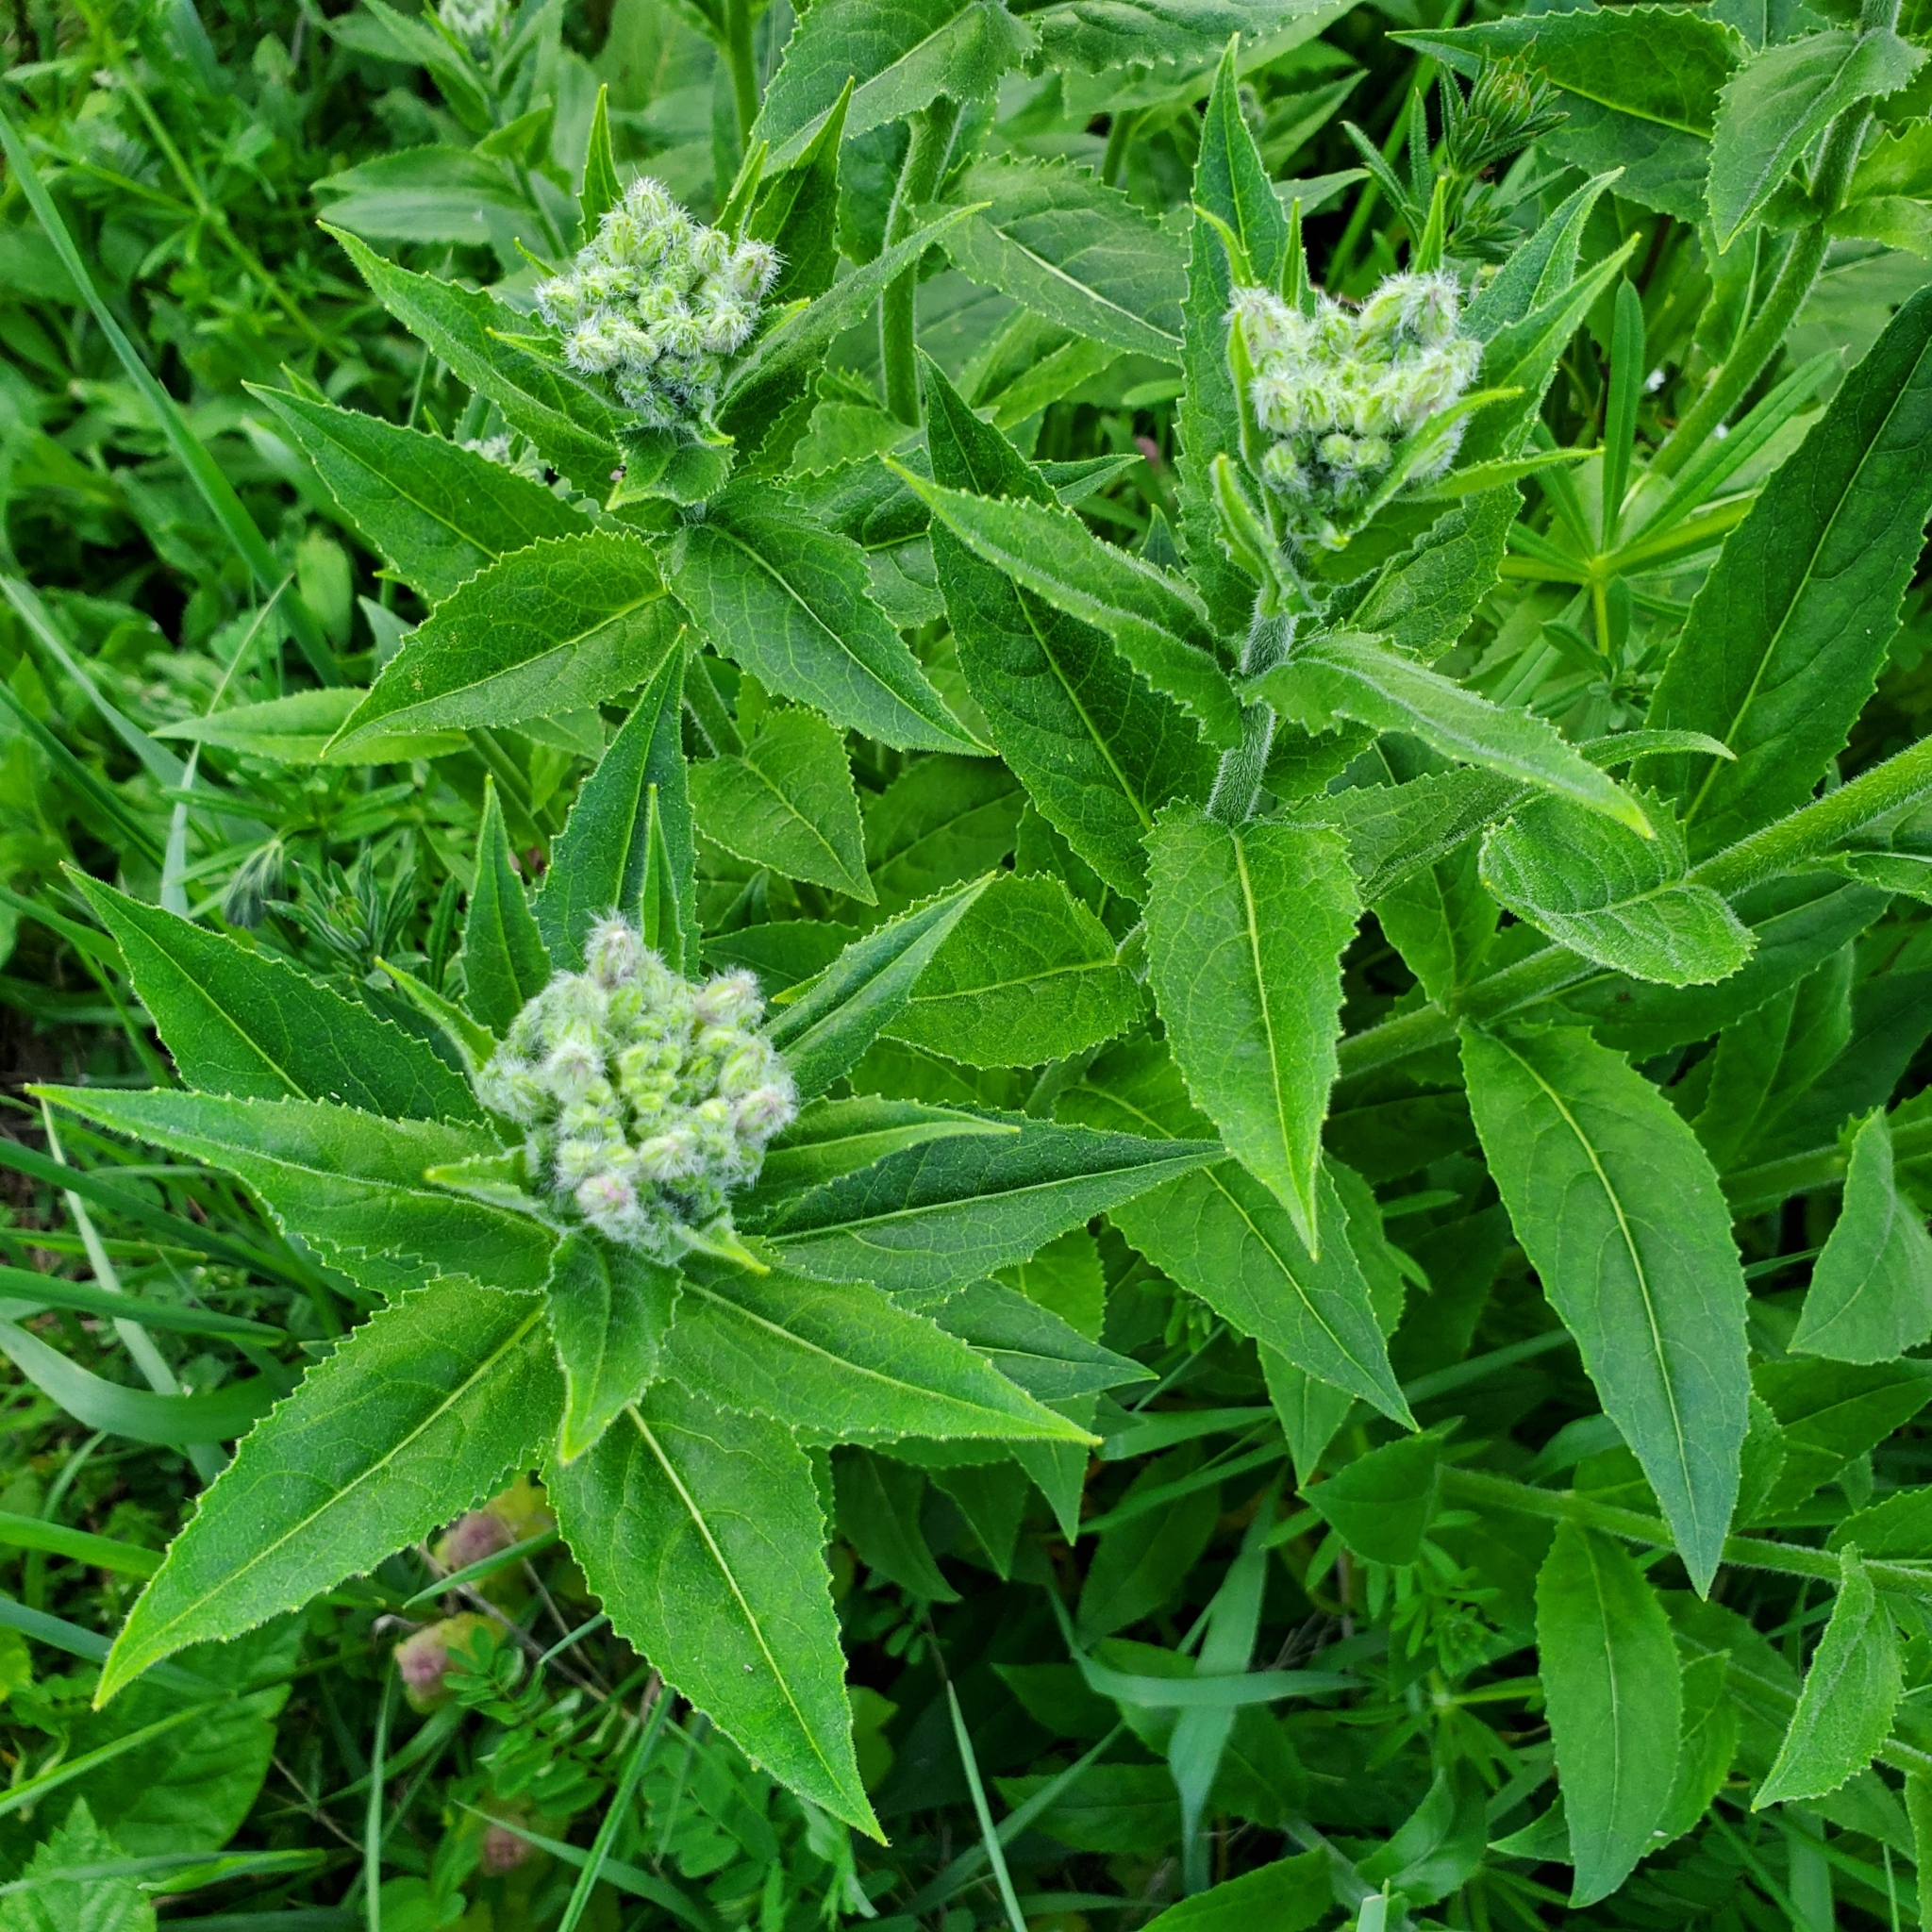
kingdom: Plantae
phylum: Tracheophyta
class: Magnoliopsida
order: Brassicales
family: Brassicaceae
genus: Hesperis
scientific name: Hesperis matronalis
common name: Dame's-violet
